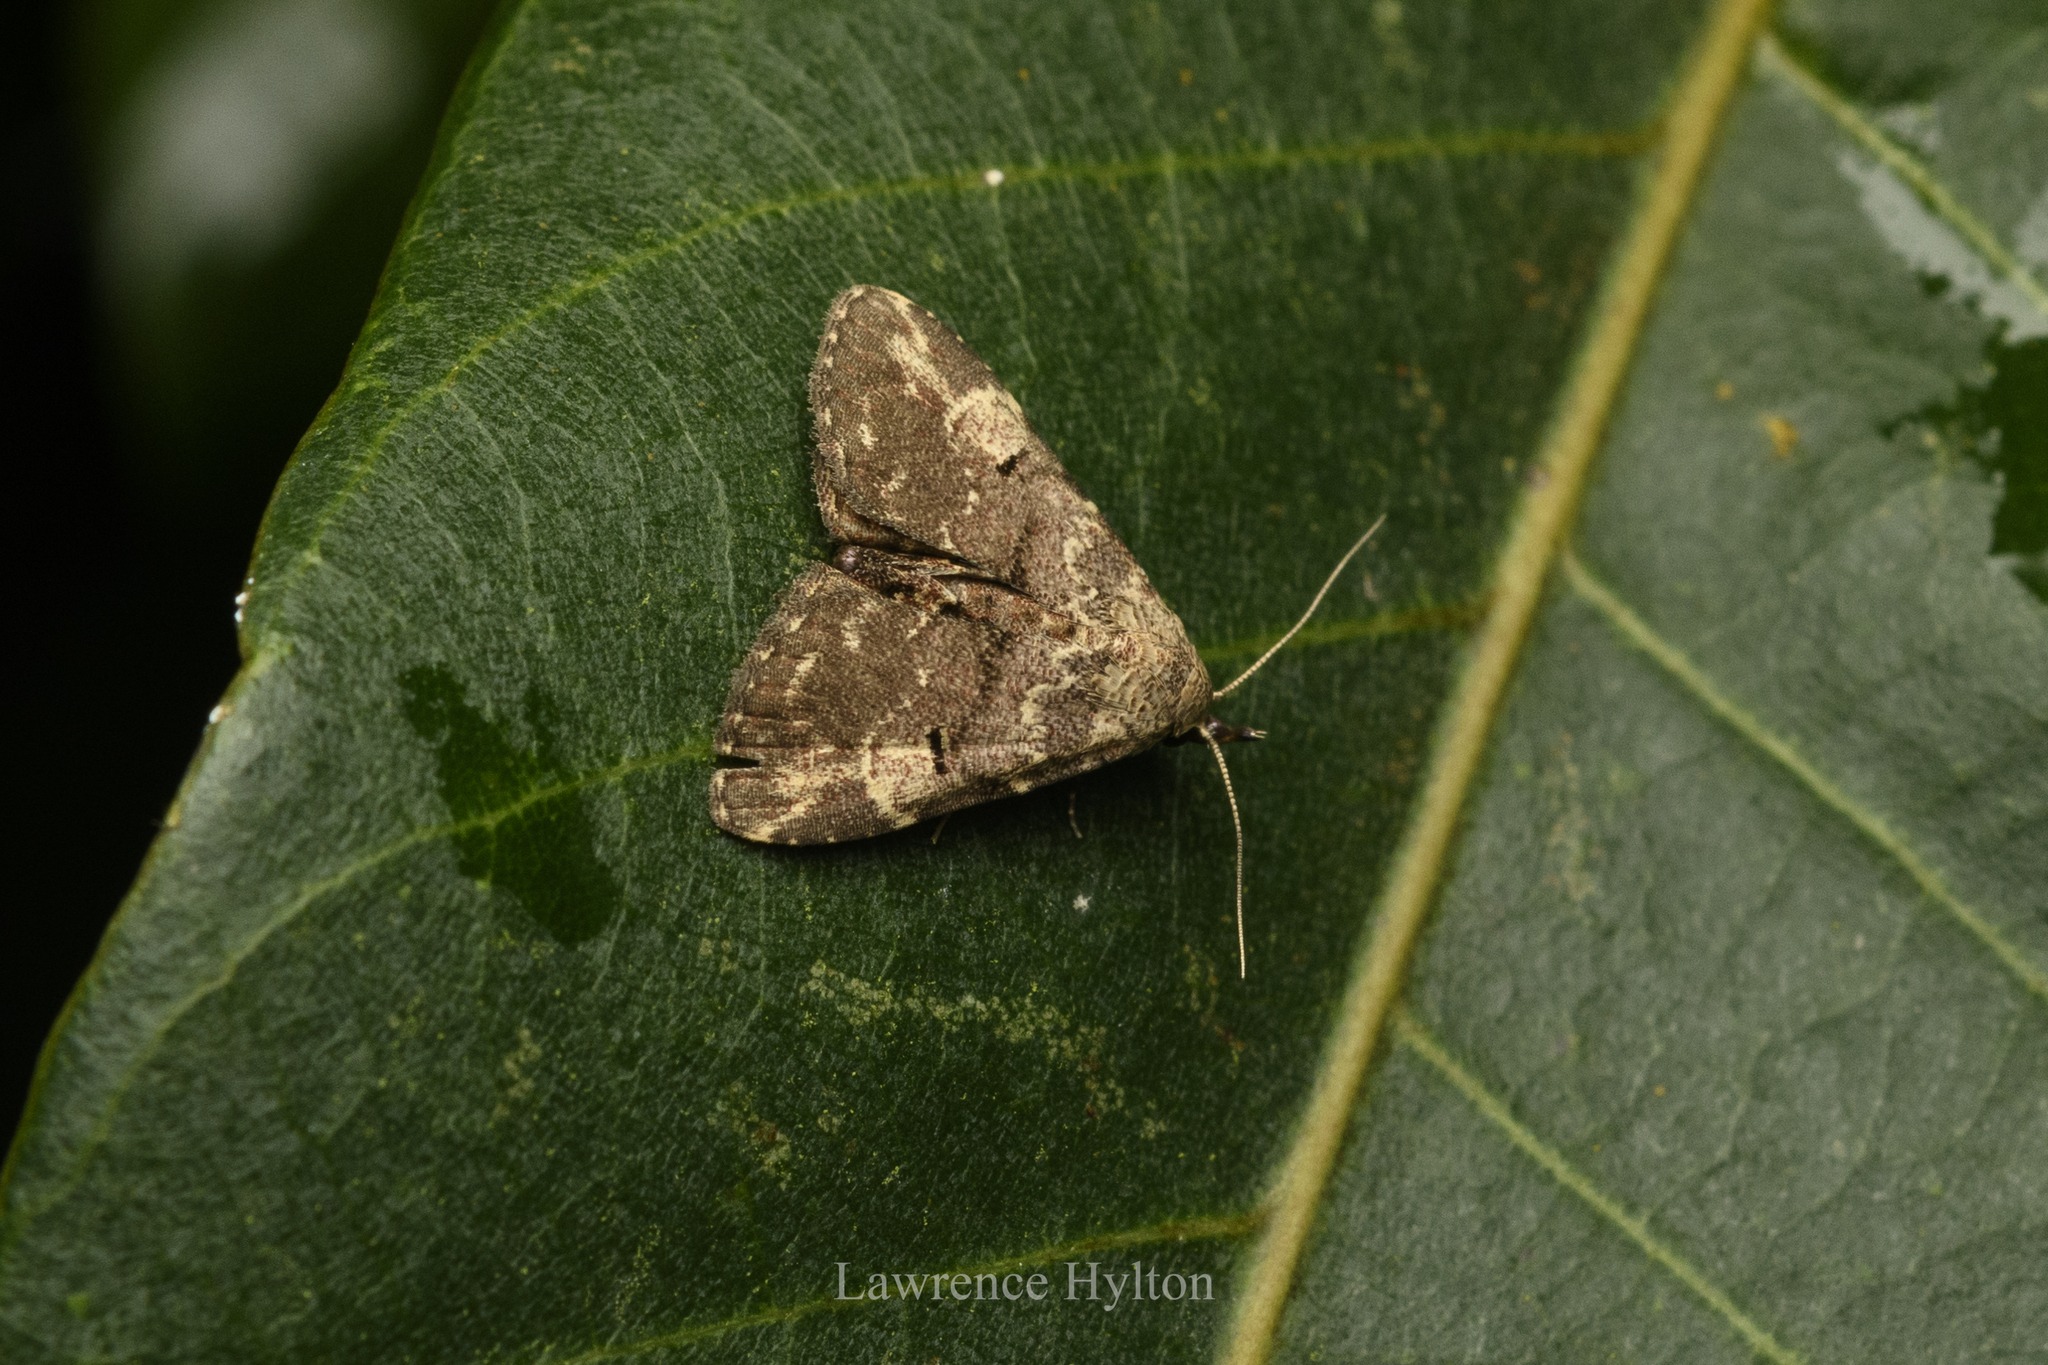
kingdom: Animalia
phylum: Arthropoda
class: Insecta
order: Lepidoptera
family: Erebidae
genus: Maguda
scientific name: Maguda suffusa
